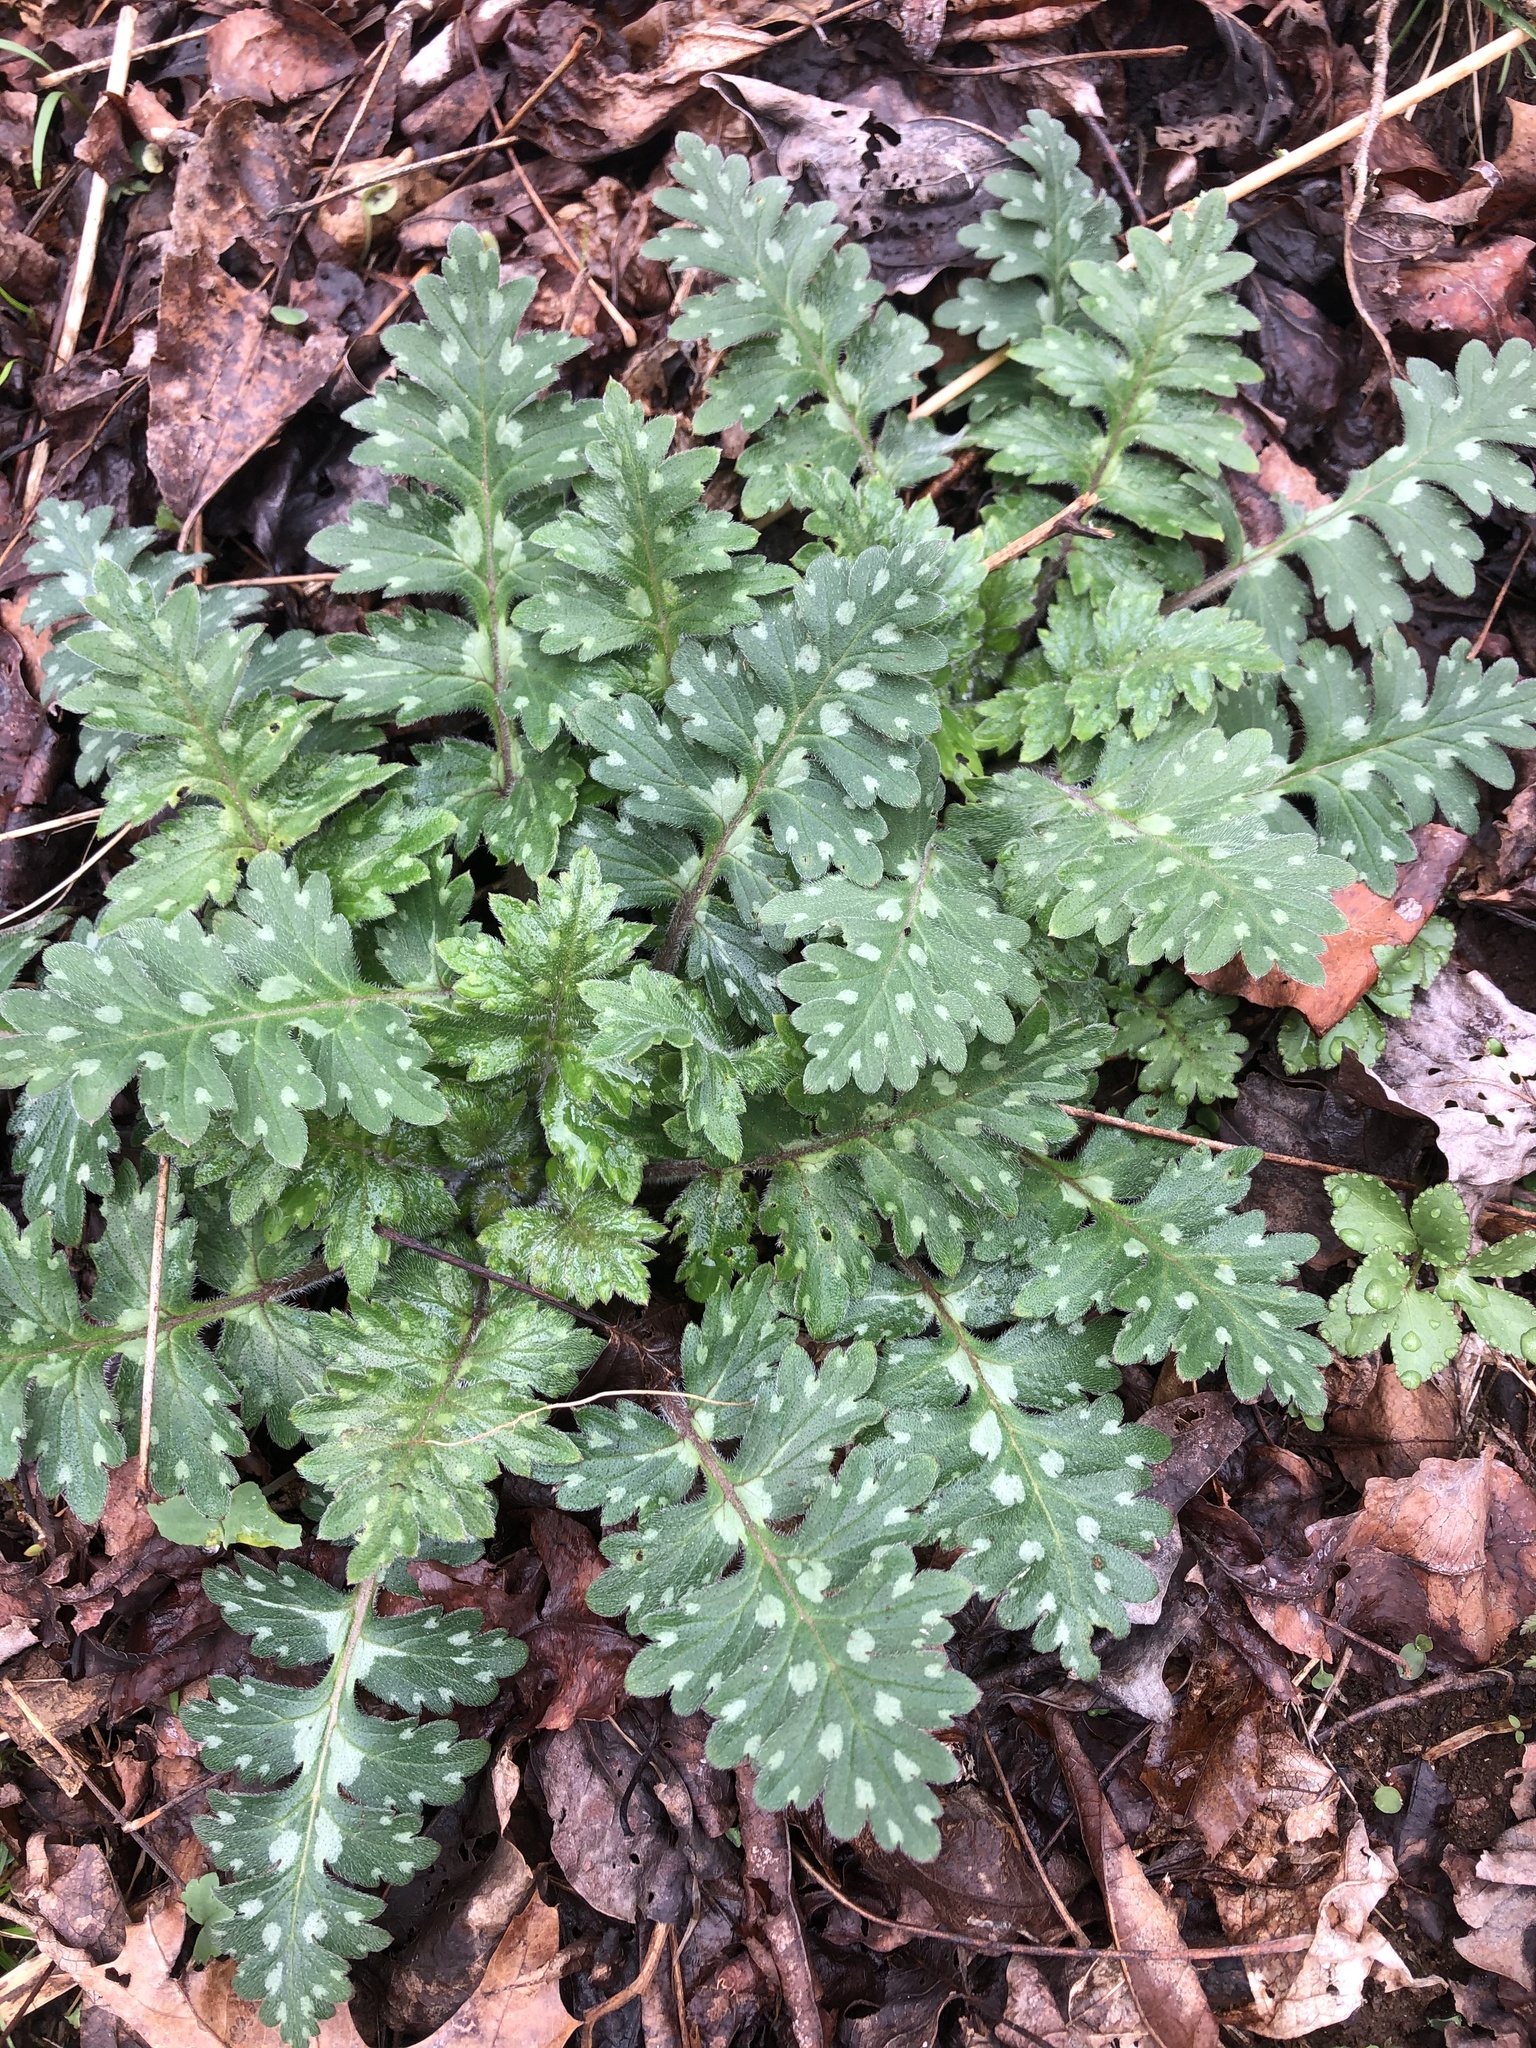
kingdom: Plantae
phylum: Tracheophyta
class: Magnoliopsida
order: Boraginales
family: Hydrophyllaceae
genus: Hydrophyllum
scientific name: Hydrophyllum macrophyllum
